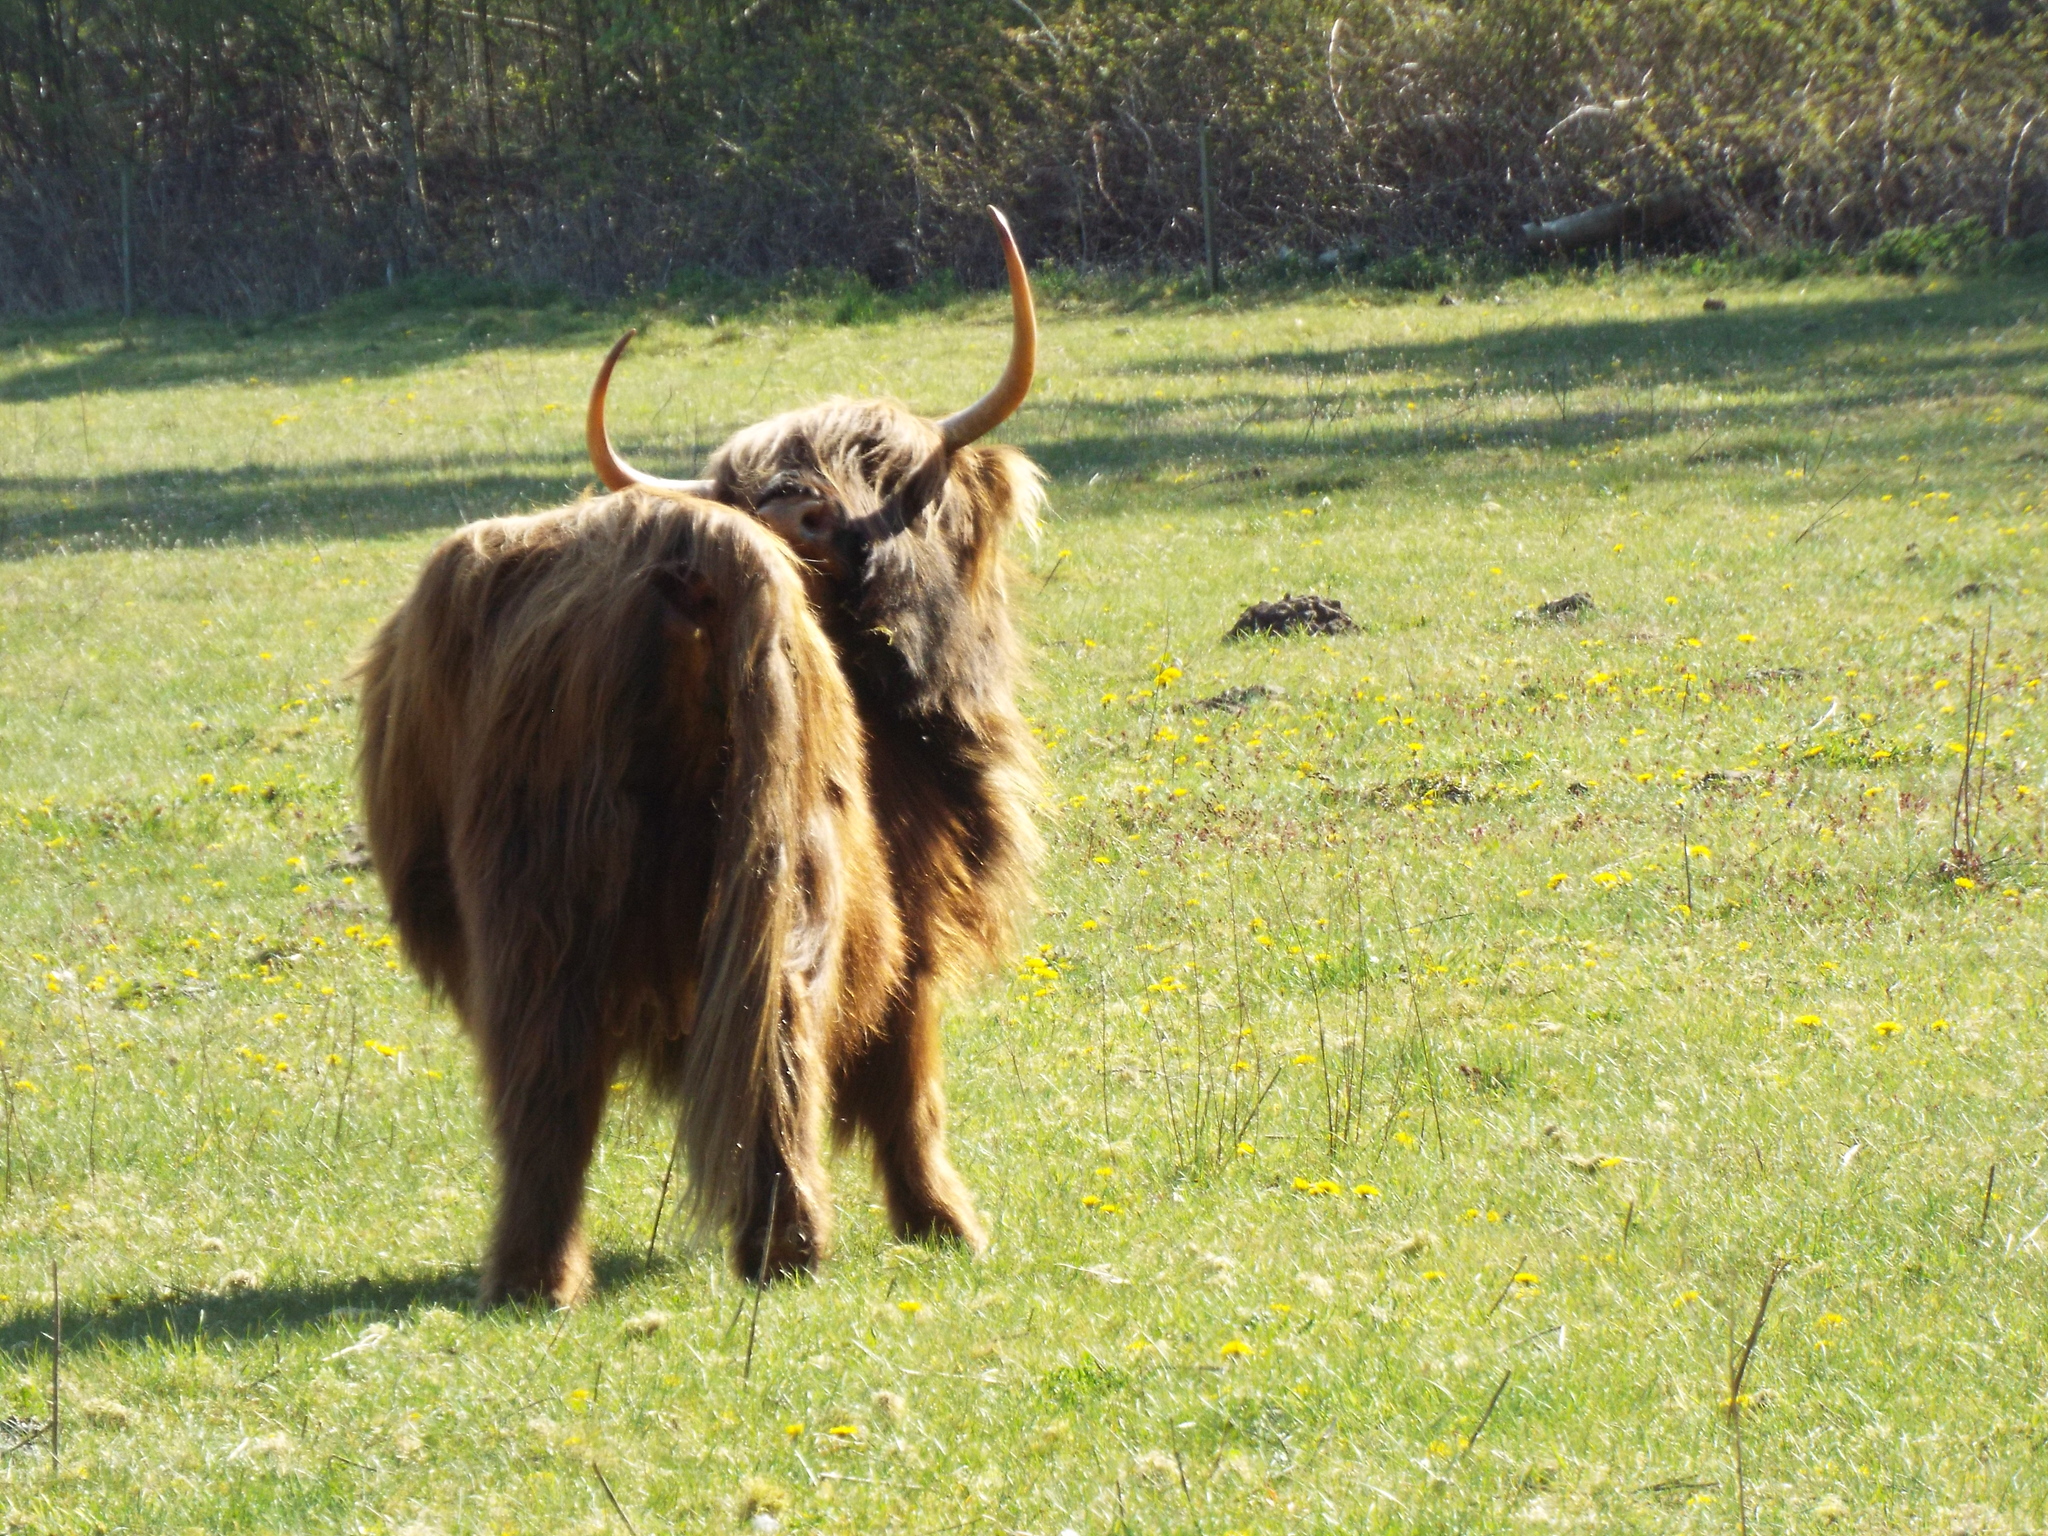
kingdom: Animalia
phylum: Chordata
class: Mammalia
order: Artiodactyla
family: Bovidae
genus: Bos
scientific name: Bos taurus
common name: Domesticated cattle
